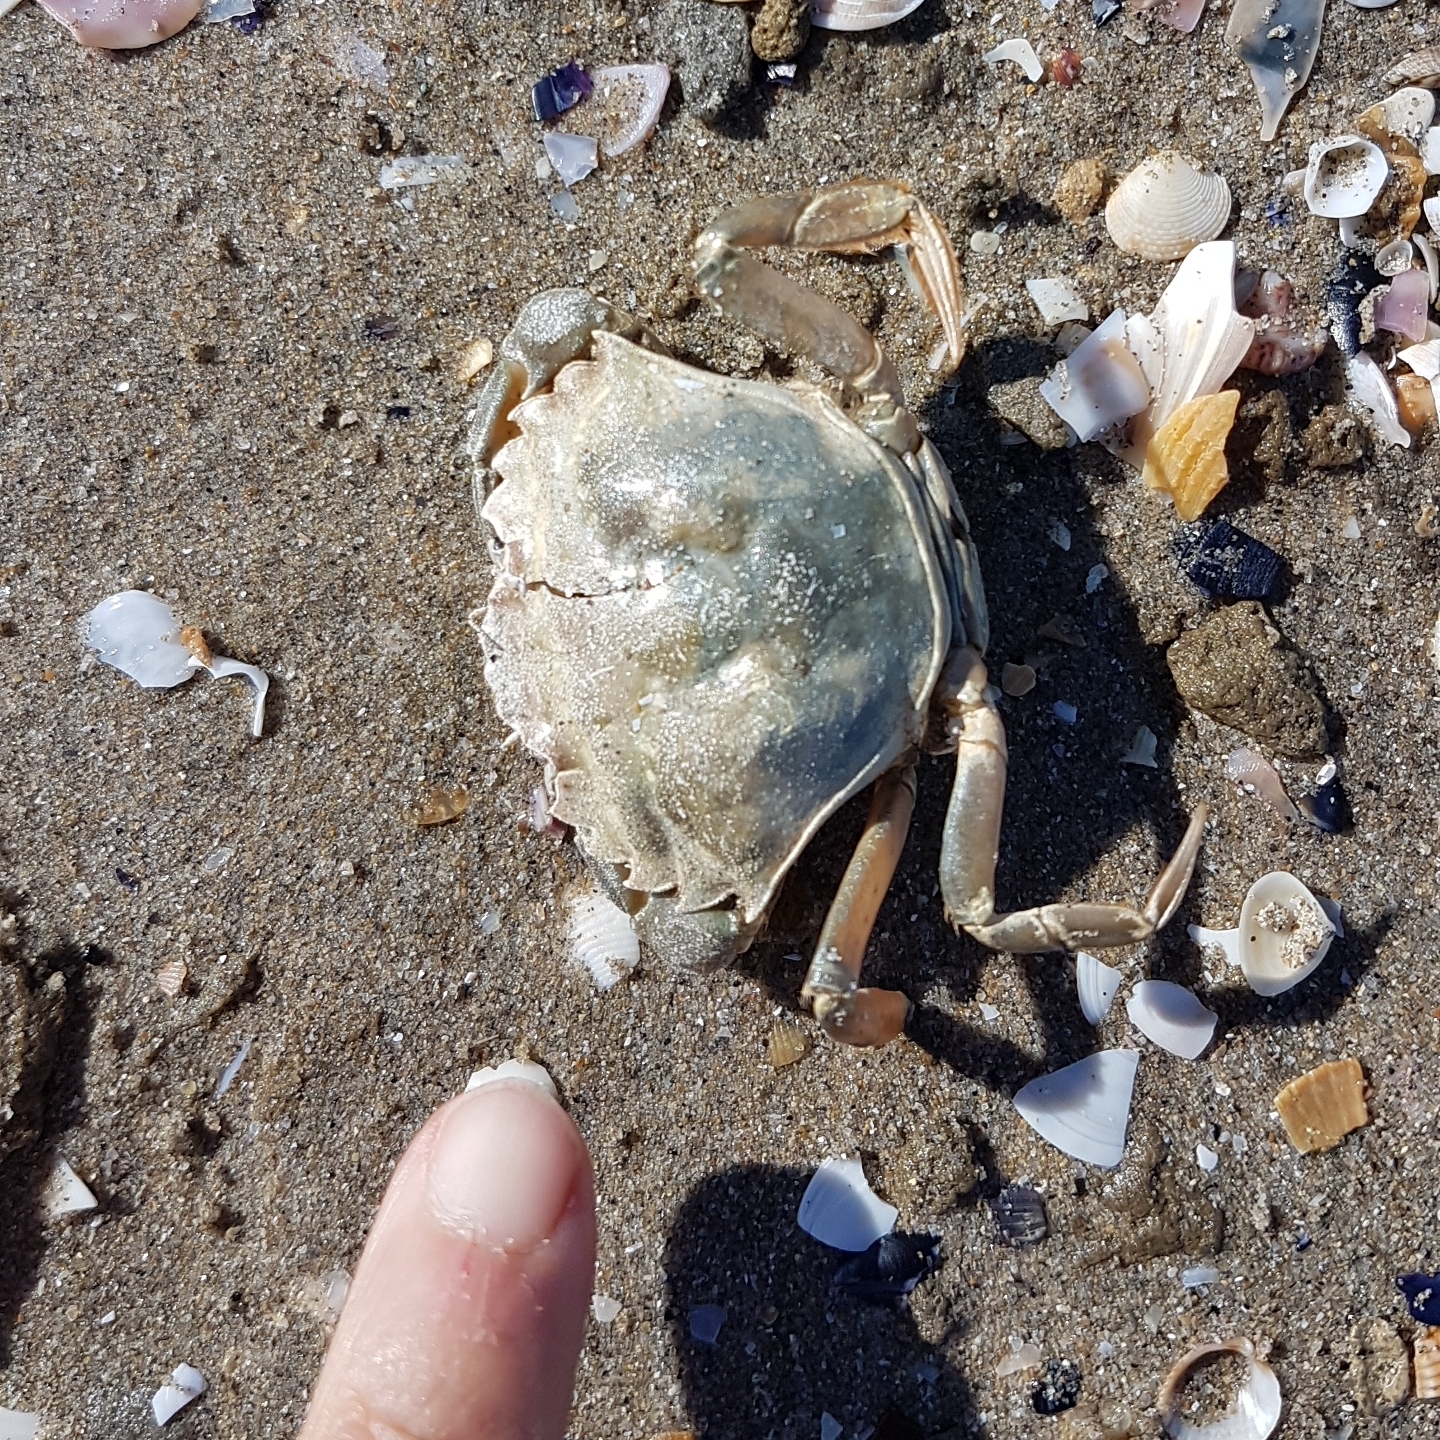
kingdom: Animalia
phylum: Arthropoda
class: Malacostraca
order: Decapoda
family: Carcinidae
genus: Carcinus
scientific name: Carcinus aestuarii
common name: Mediterranean green crab
